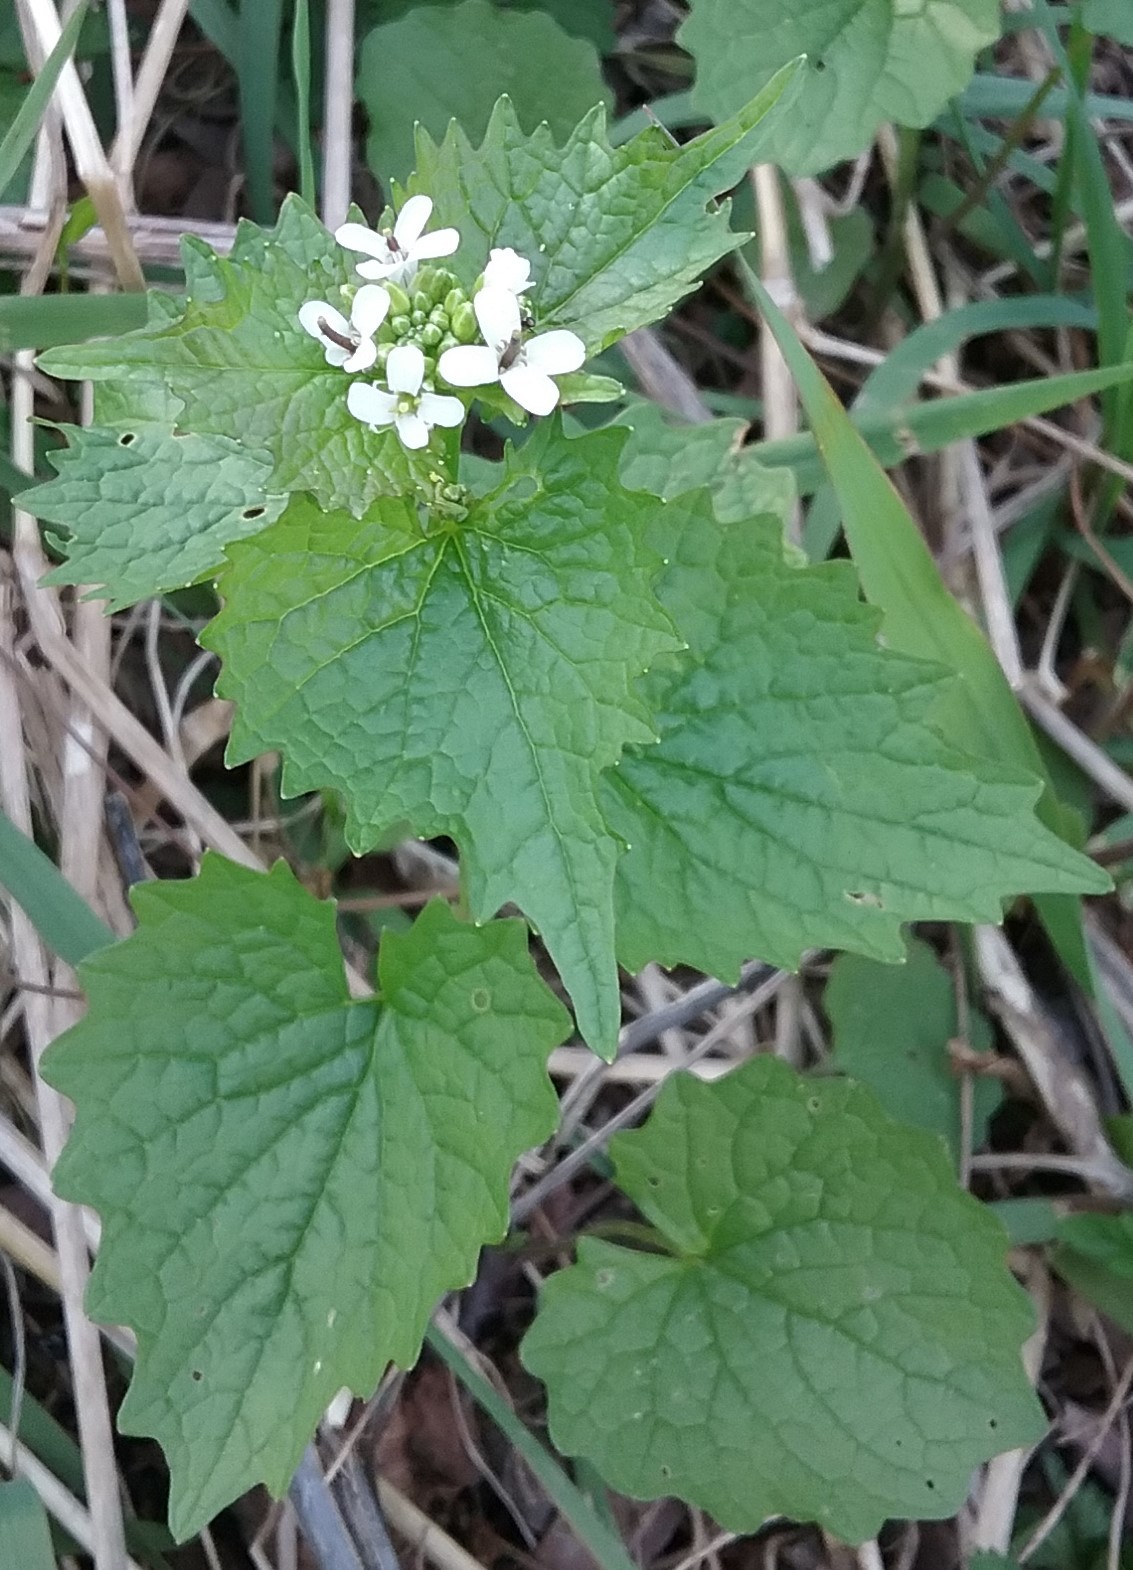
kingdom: Plantae
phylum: Tracheophyta
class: Magnoliopsida
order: Brassicales
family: Brassicaceae
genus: Alliaria
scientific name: Alliaria petiolata
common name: Garlic mustard
